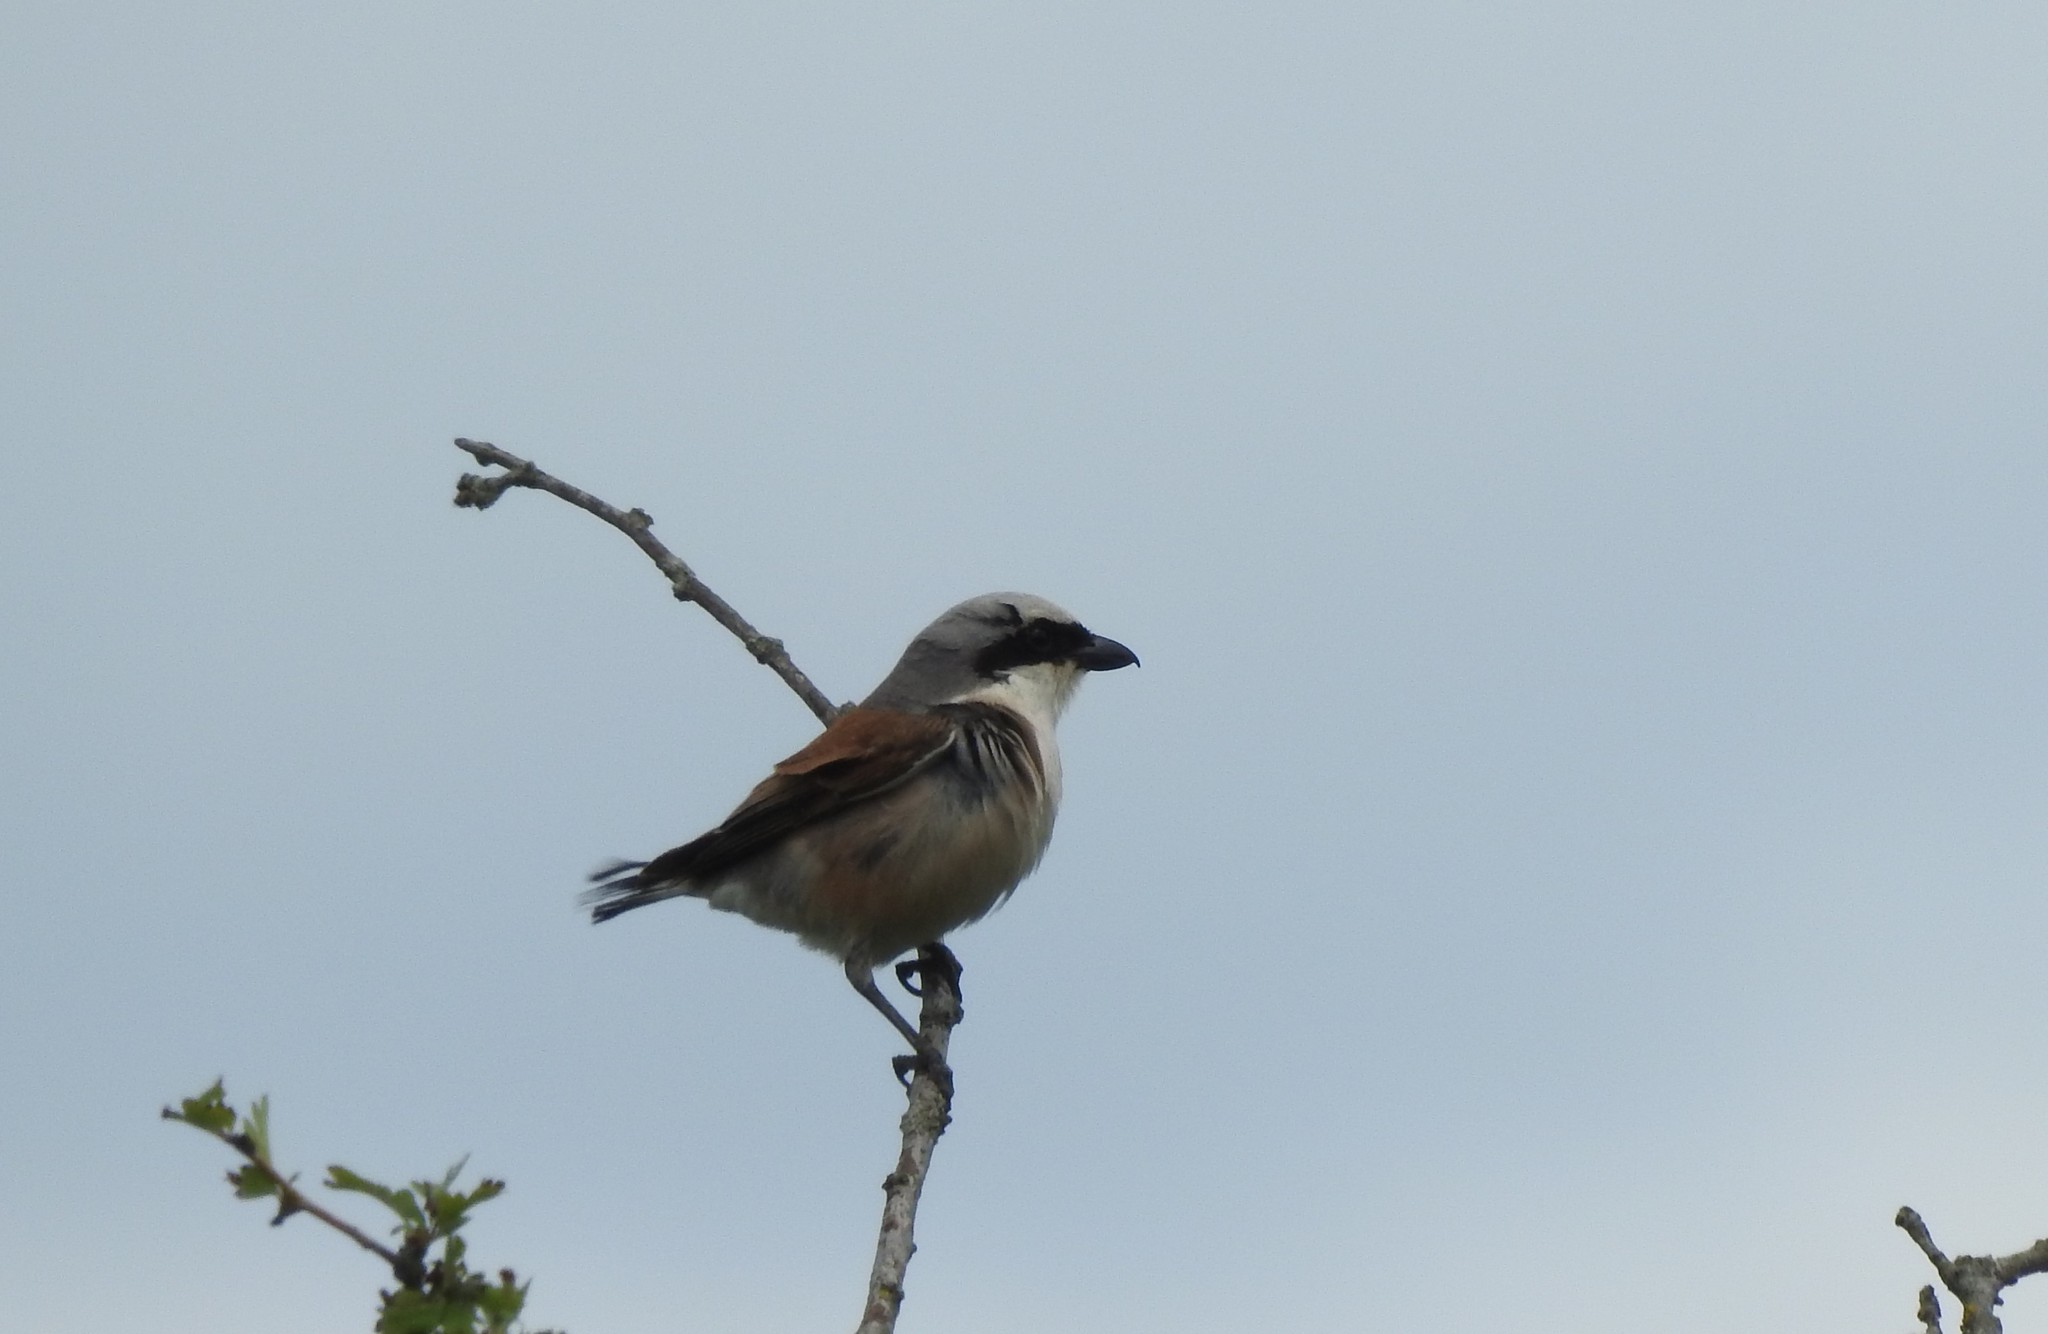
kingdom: Animalia
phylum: Chordata
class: Aves
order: Passeriformes
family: Laniidae
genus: Lanius
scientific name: Lanius collurio
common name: Red-backed shrike
